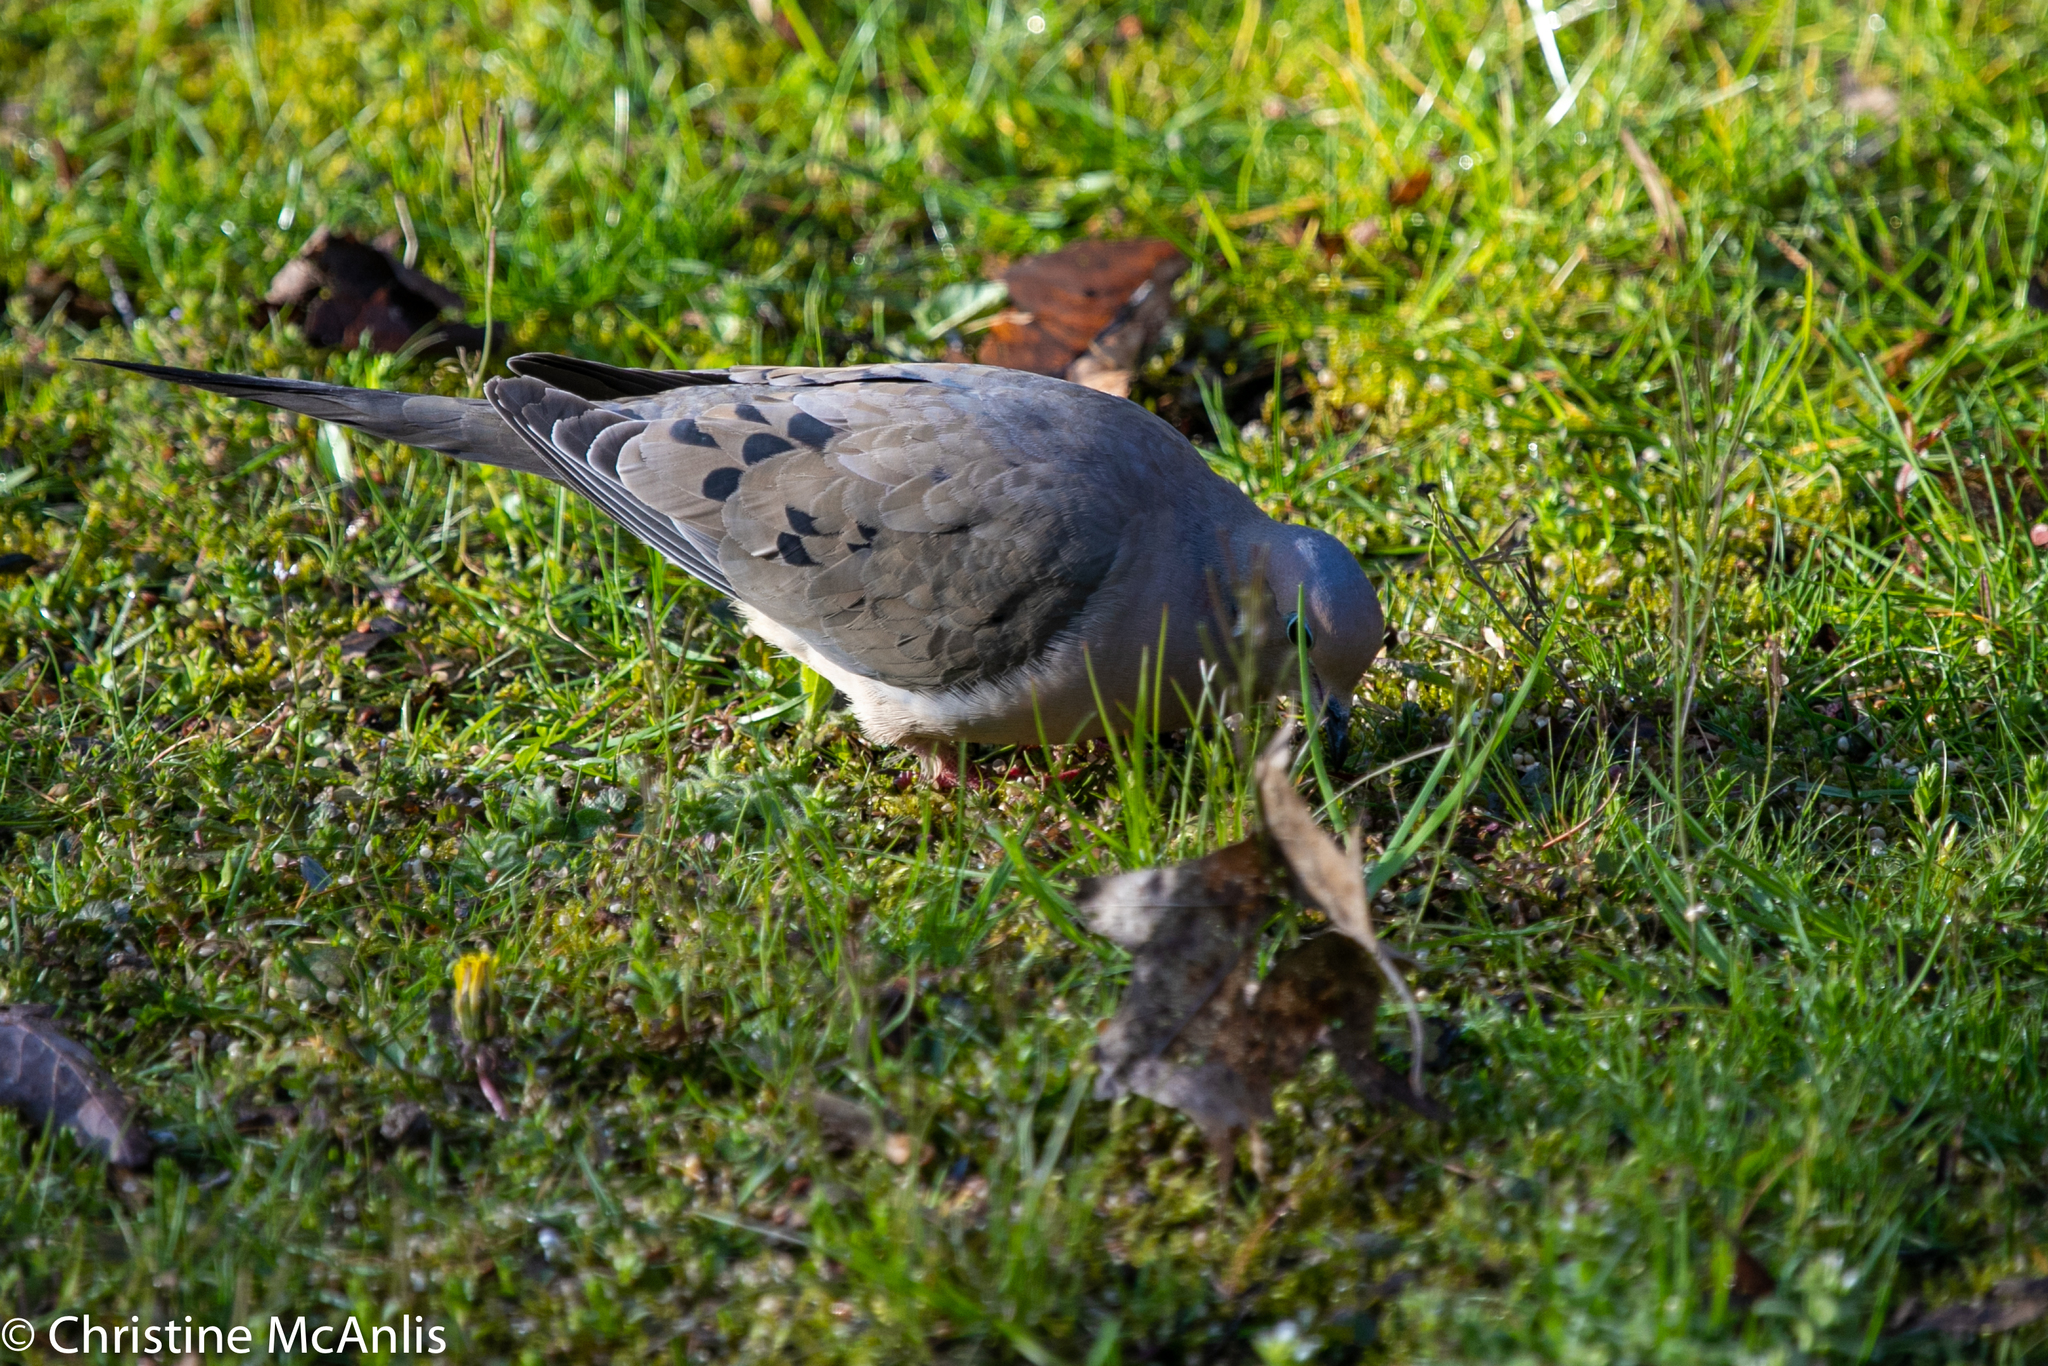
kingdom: Animalia
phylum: Chordata
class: Aves
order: Columbiformes
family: Columbidae
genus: Zenaida
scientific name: Zenaida macroura
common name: Mourning dove
